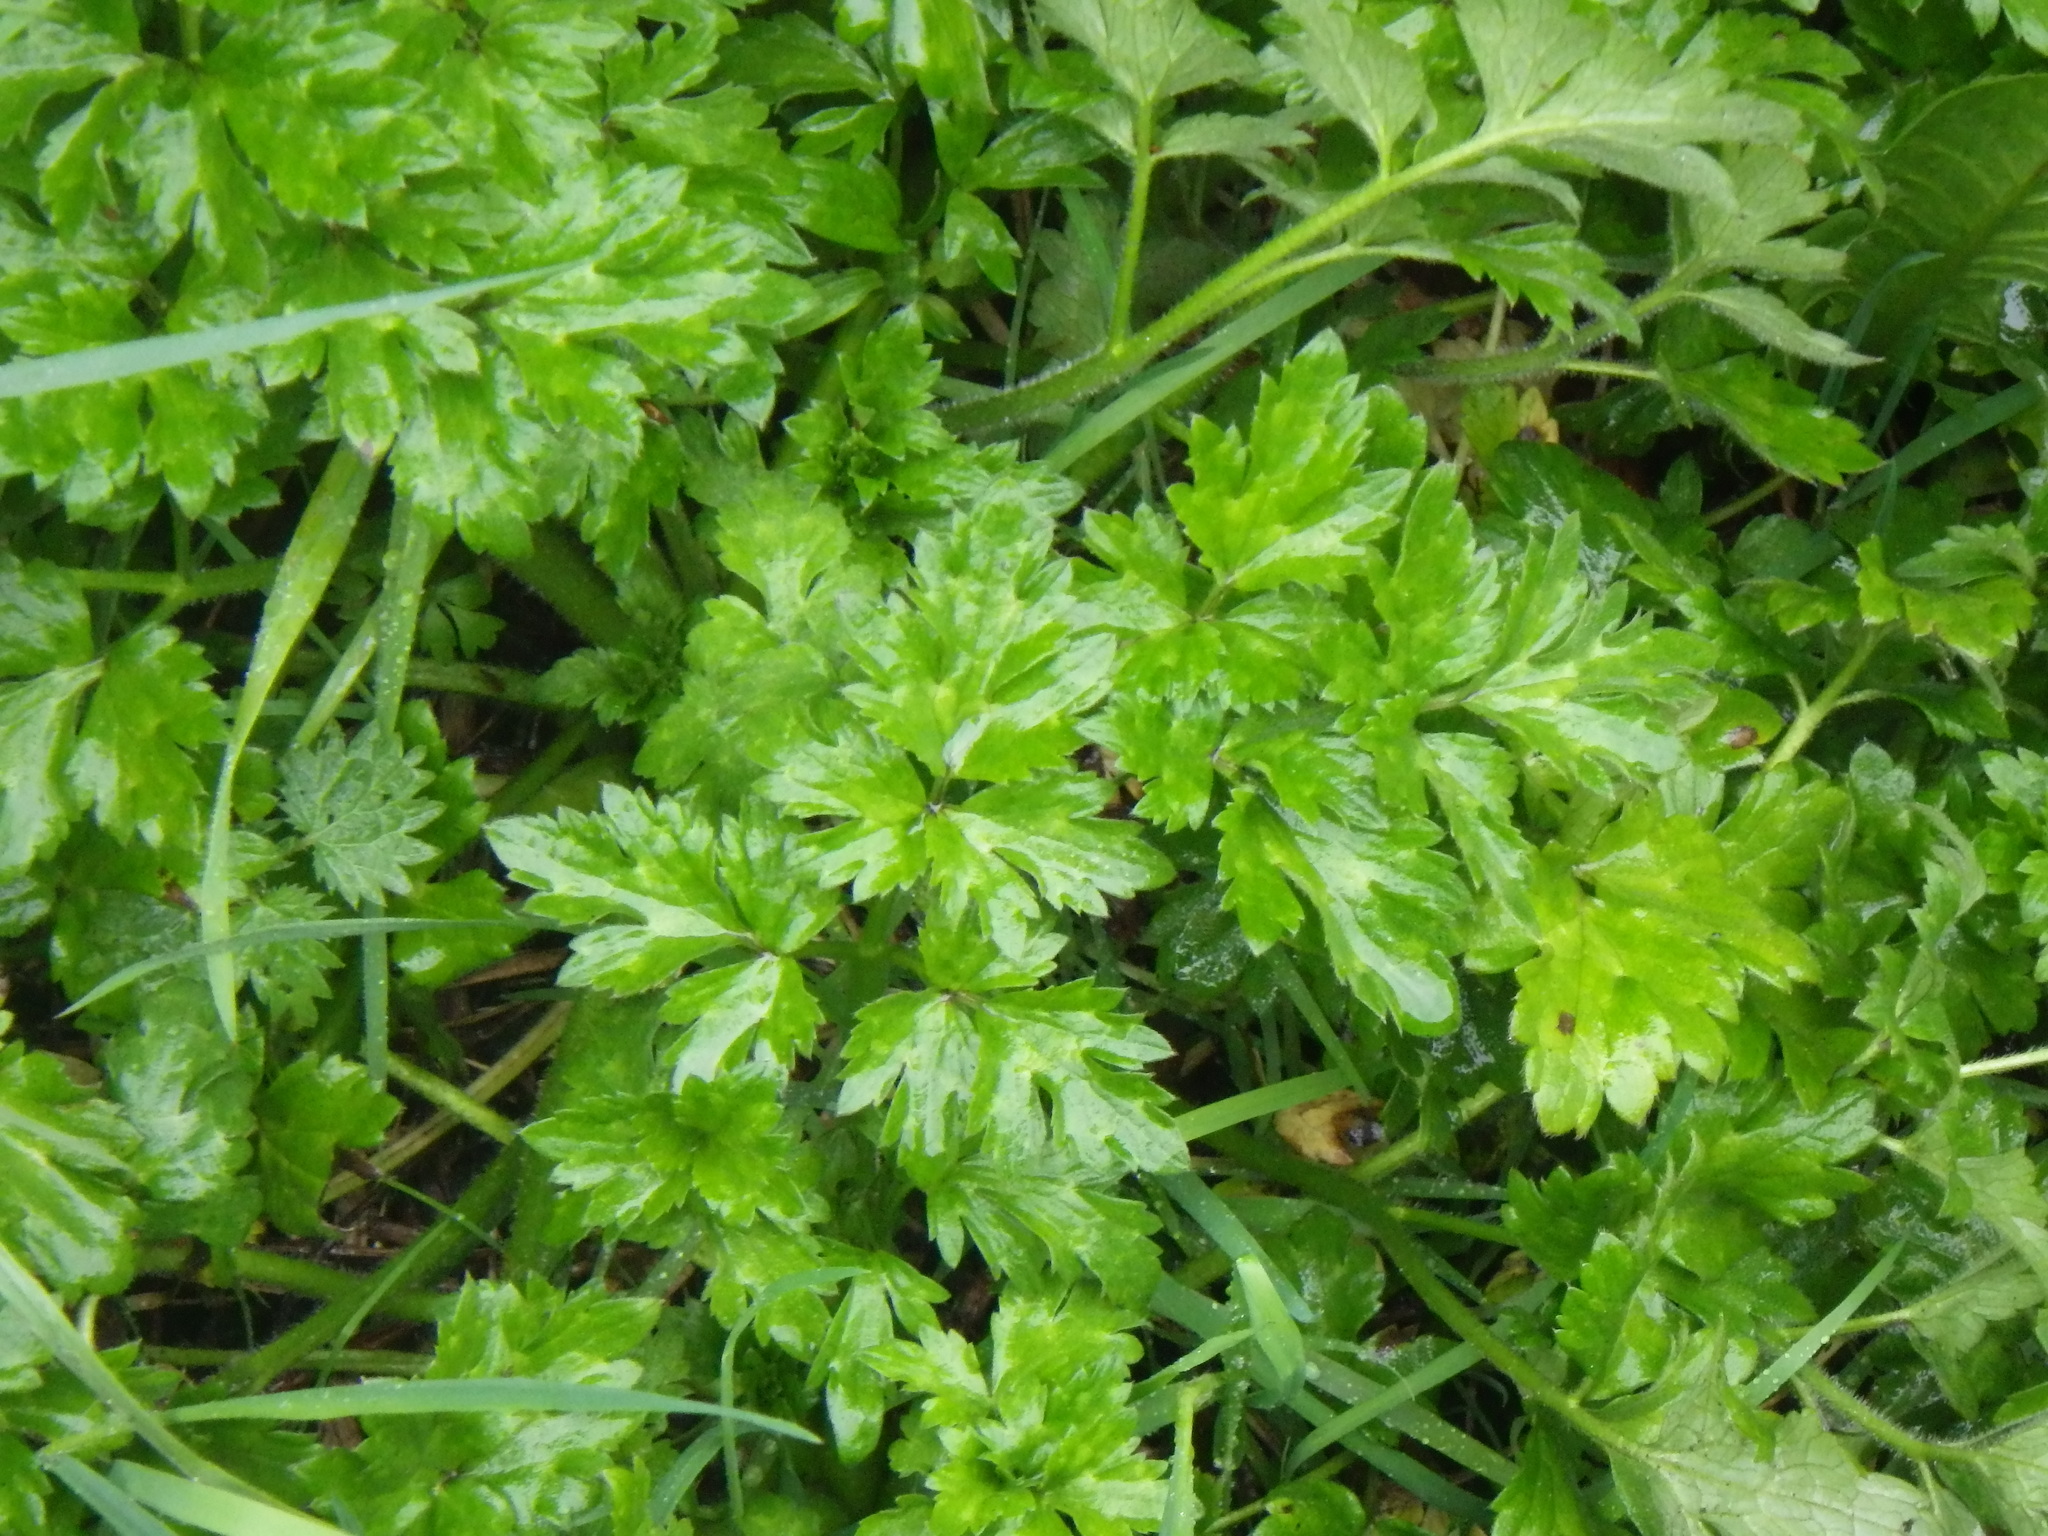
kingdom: Plantae
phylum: Tracheophyta
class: Magnoliopsida
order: Ranunculales
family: Ranunculaceae
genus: Ranunculus
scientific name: Ranunculus repens
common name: Creeping buttercup
